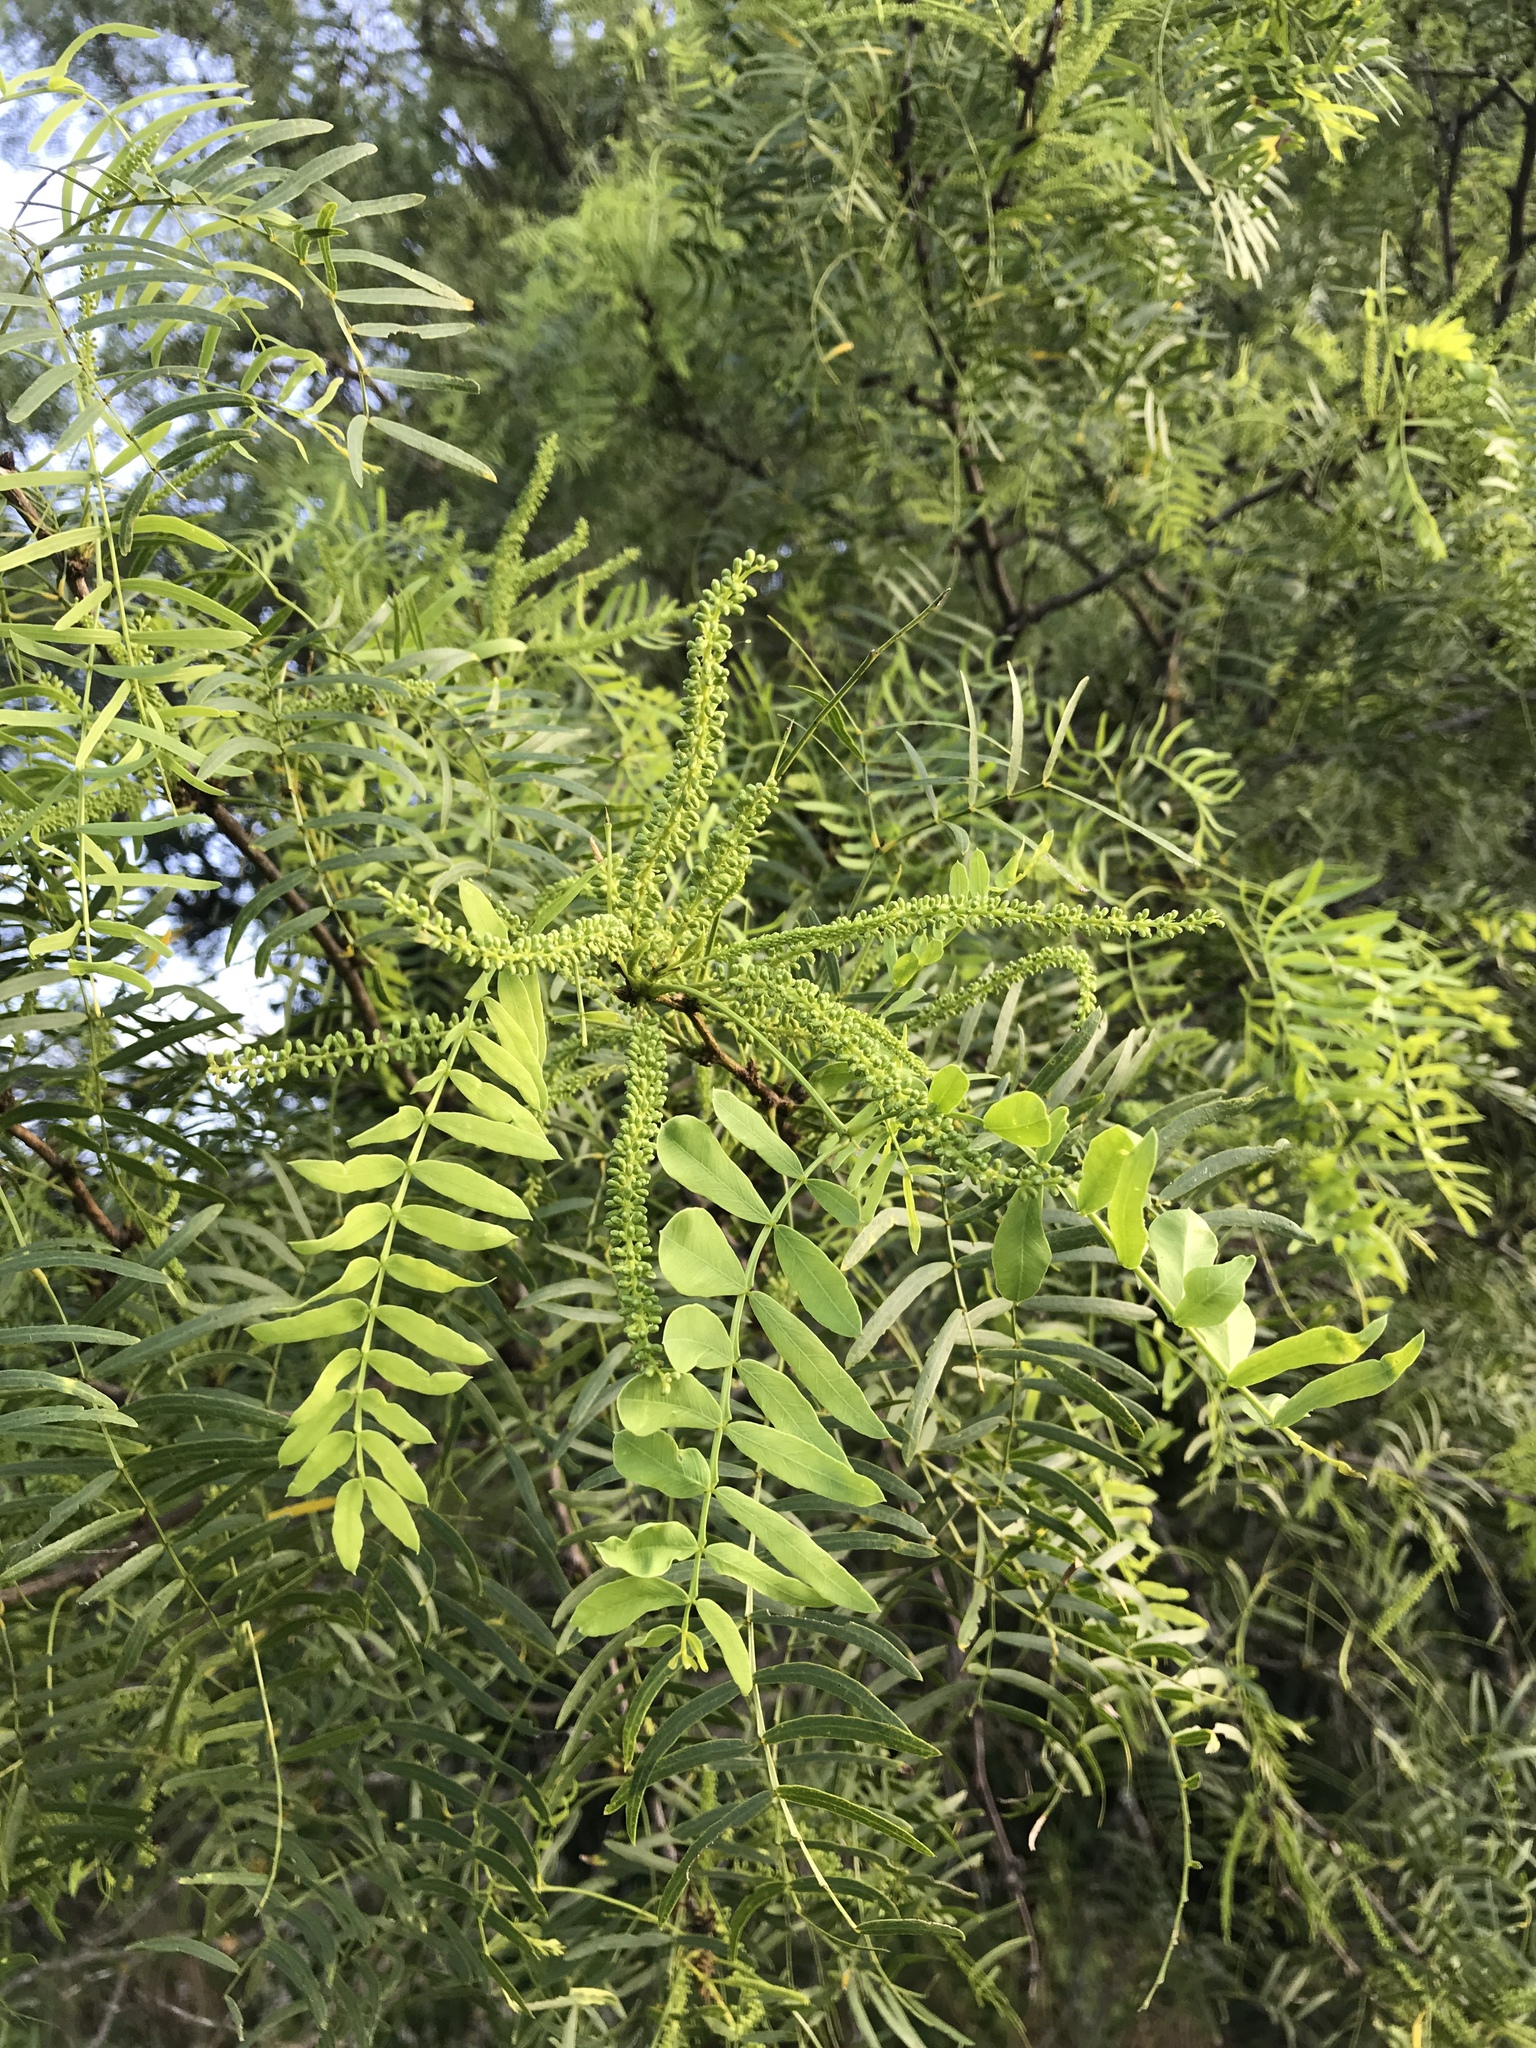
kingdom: Plantae
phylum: Tracheophyta
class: Magnoliopsida
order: Fabales
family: Fabaceae
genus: Prosopis
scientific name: Prosopis glandulosa
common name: Honey mesquite
